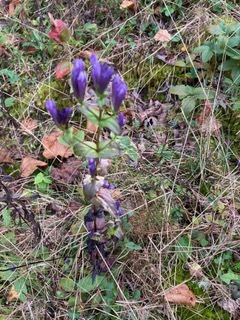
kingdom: Plantae
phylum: Tracheophyta
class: Magnoliopsida
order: Gentianales
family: Gentianaceae
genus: Gentianella
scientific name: Gentianella quinquefolia
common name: Agueweed
